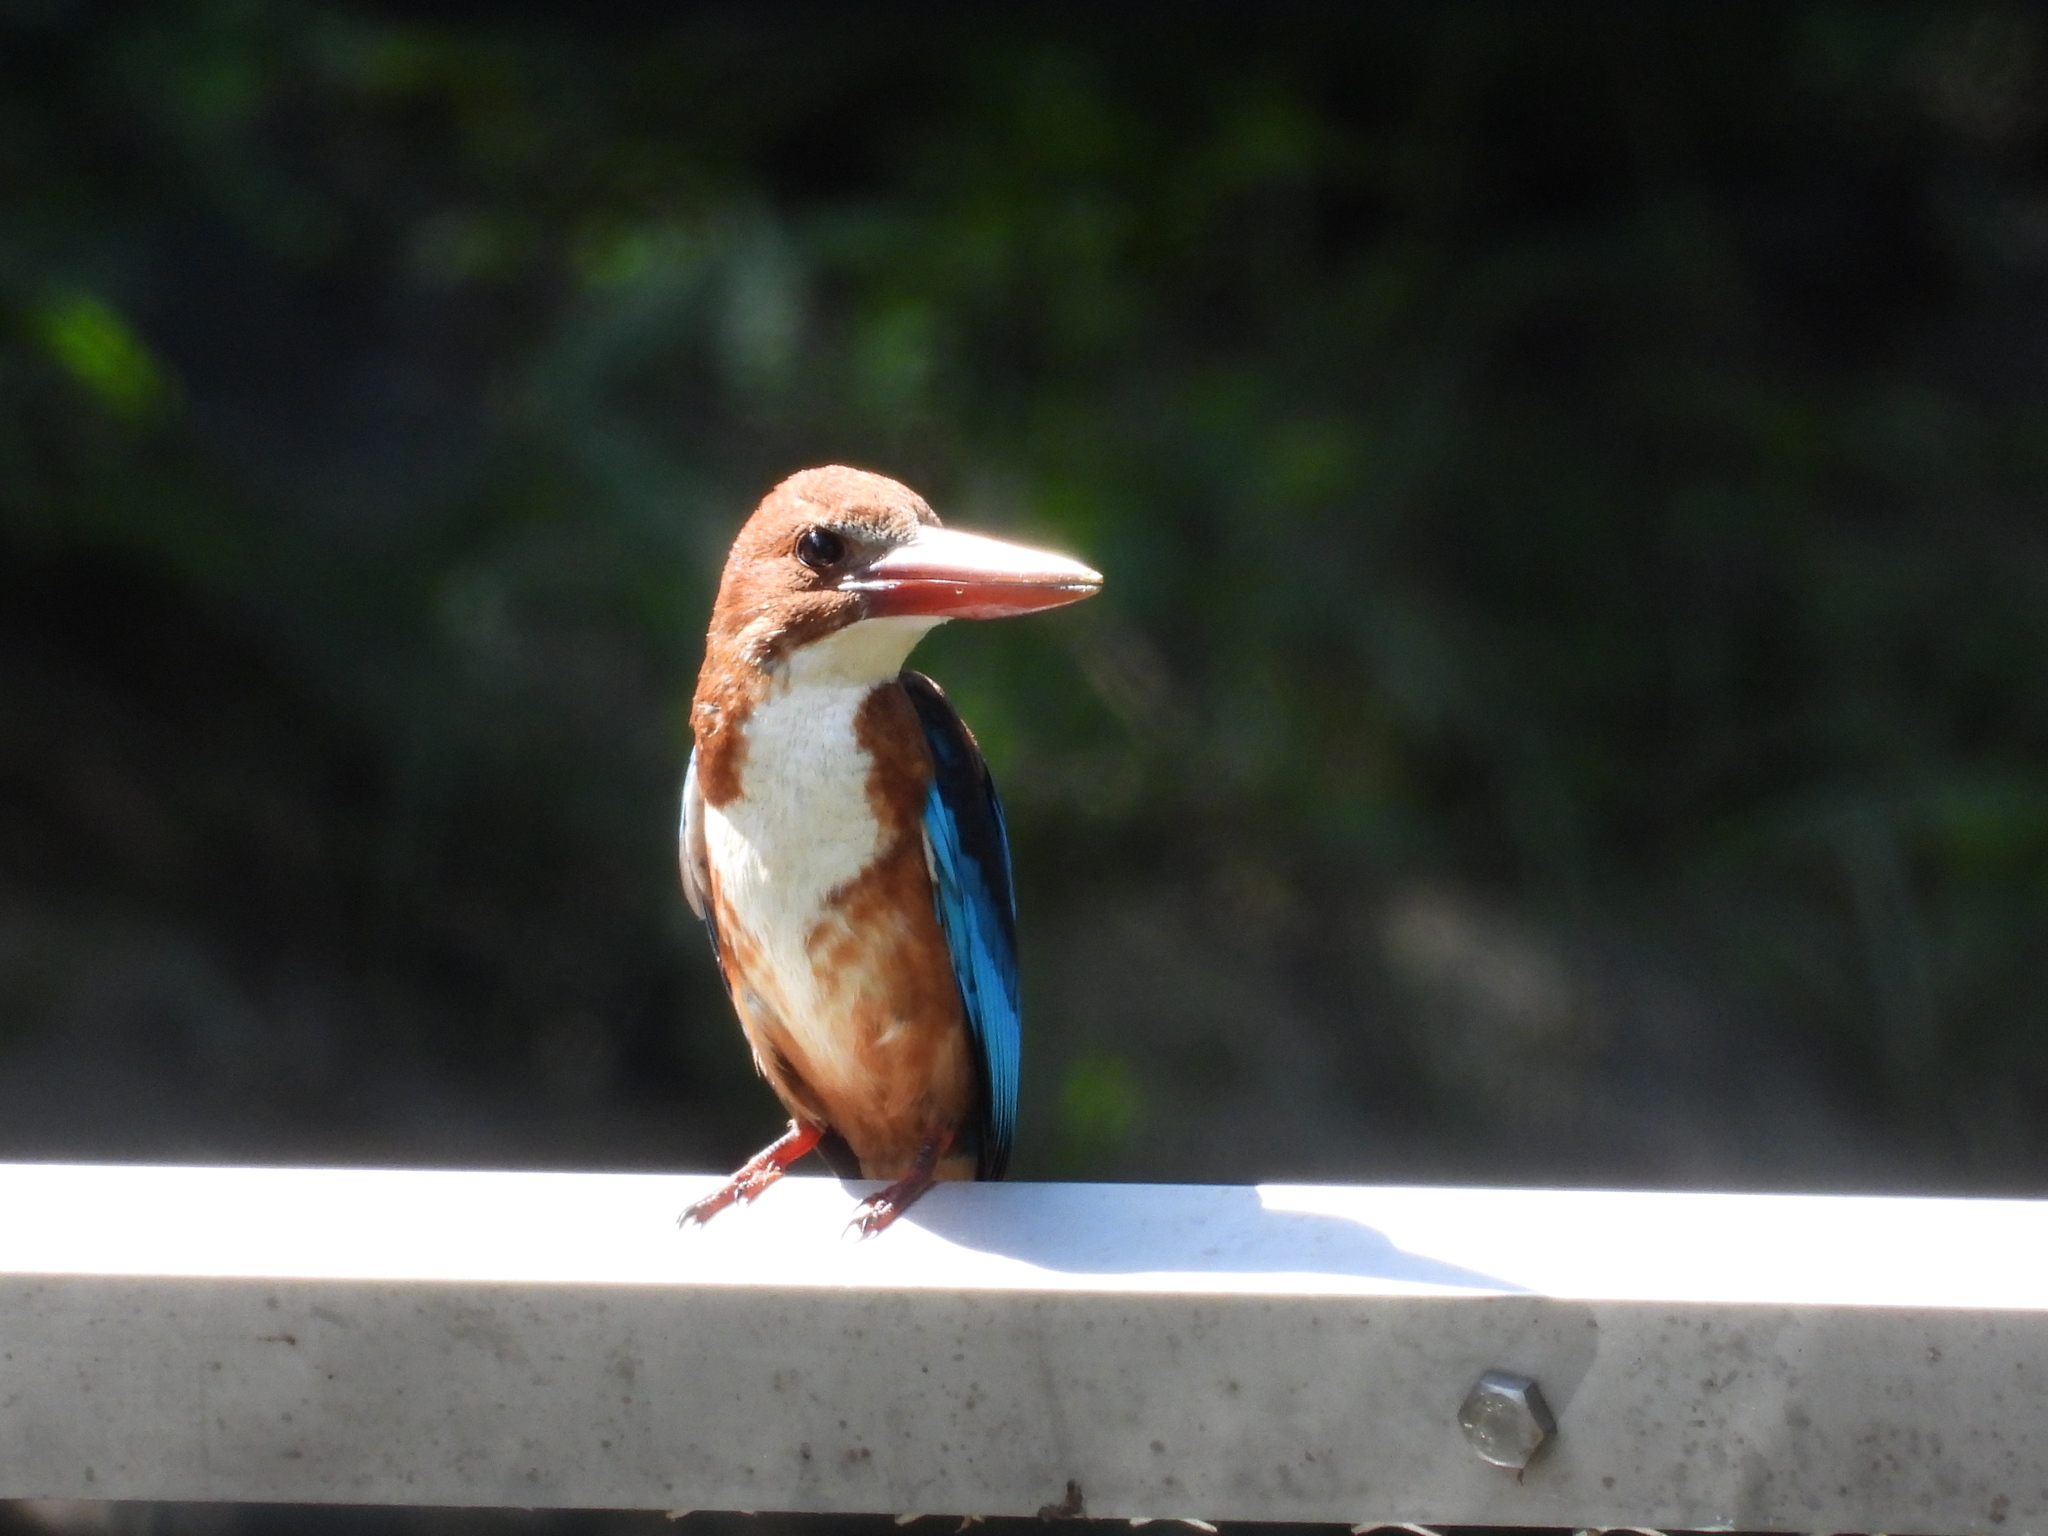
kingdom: Animalia
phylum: Chordata
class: Aves
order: Coraciiformes
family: Alcedinidae
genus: Halcyon
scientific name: Halcyon smyrnensis
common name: White-throated kingfisher
